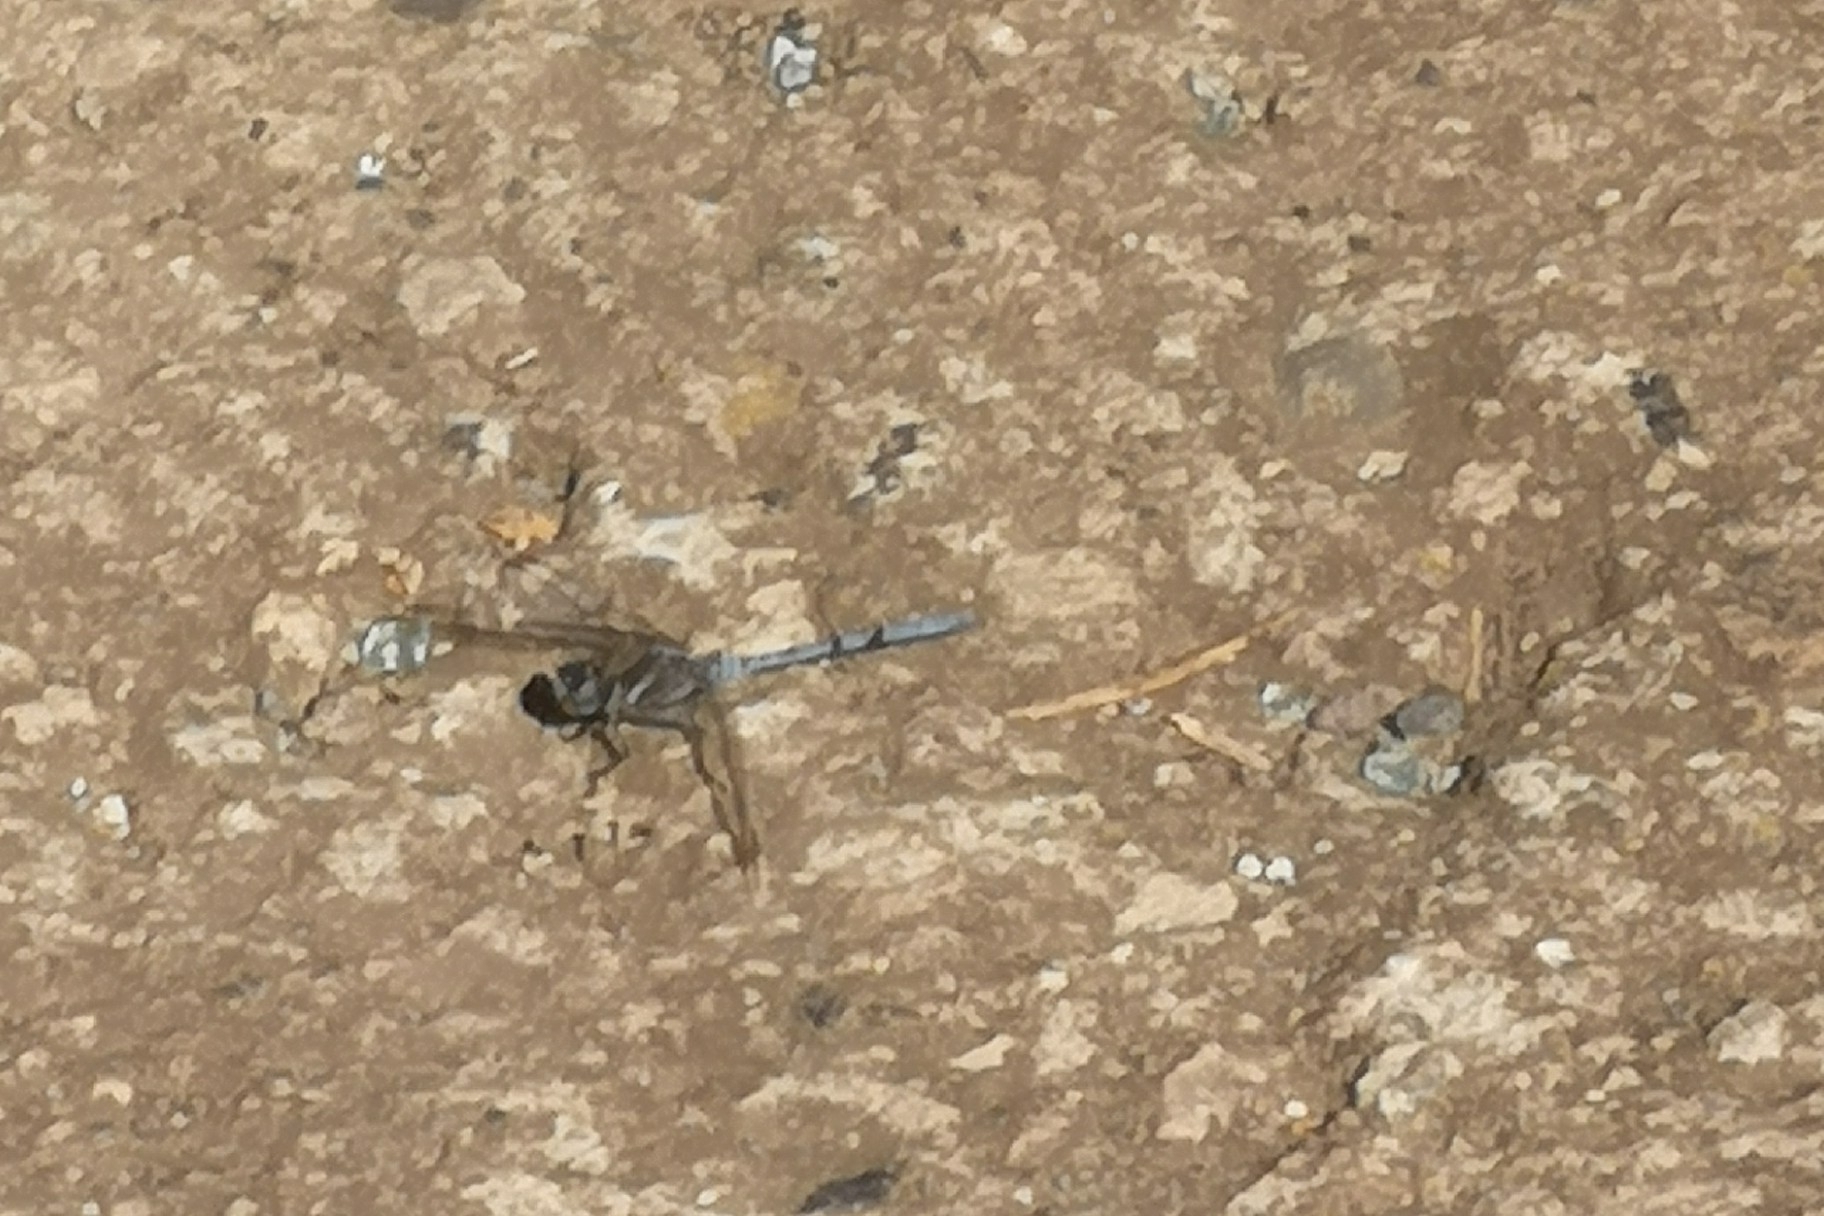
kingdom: Animalia
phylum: Arthropoda
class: Insecta
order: Odonata
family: Libellulidae
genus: Orthetrum
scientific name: Orthetrum chrysostigma
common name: Epaulet skimmer
